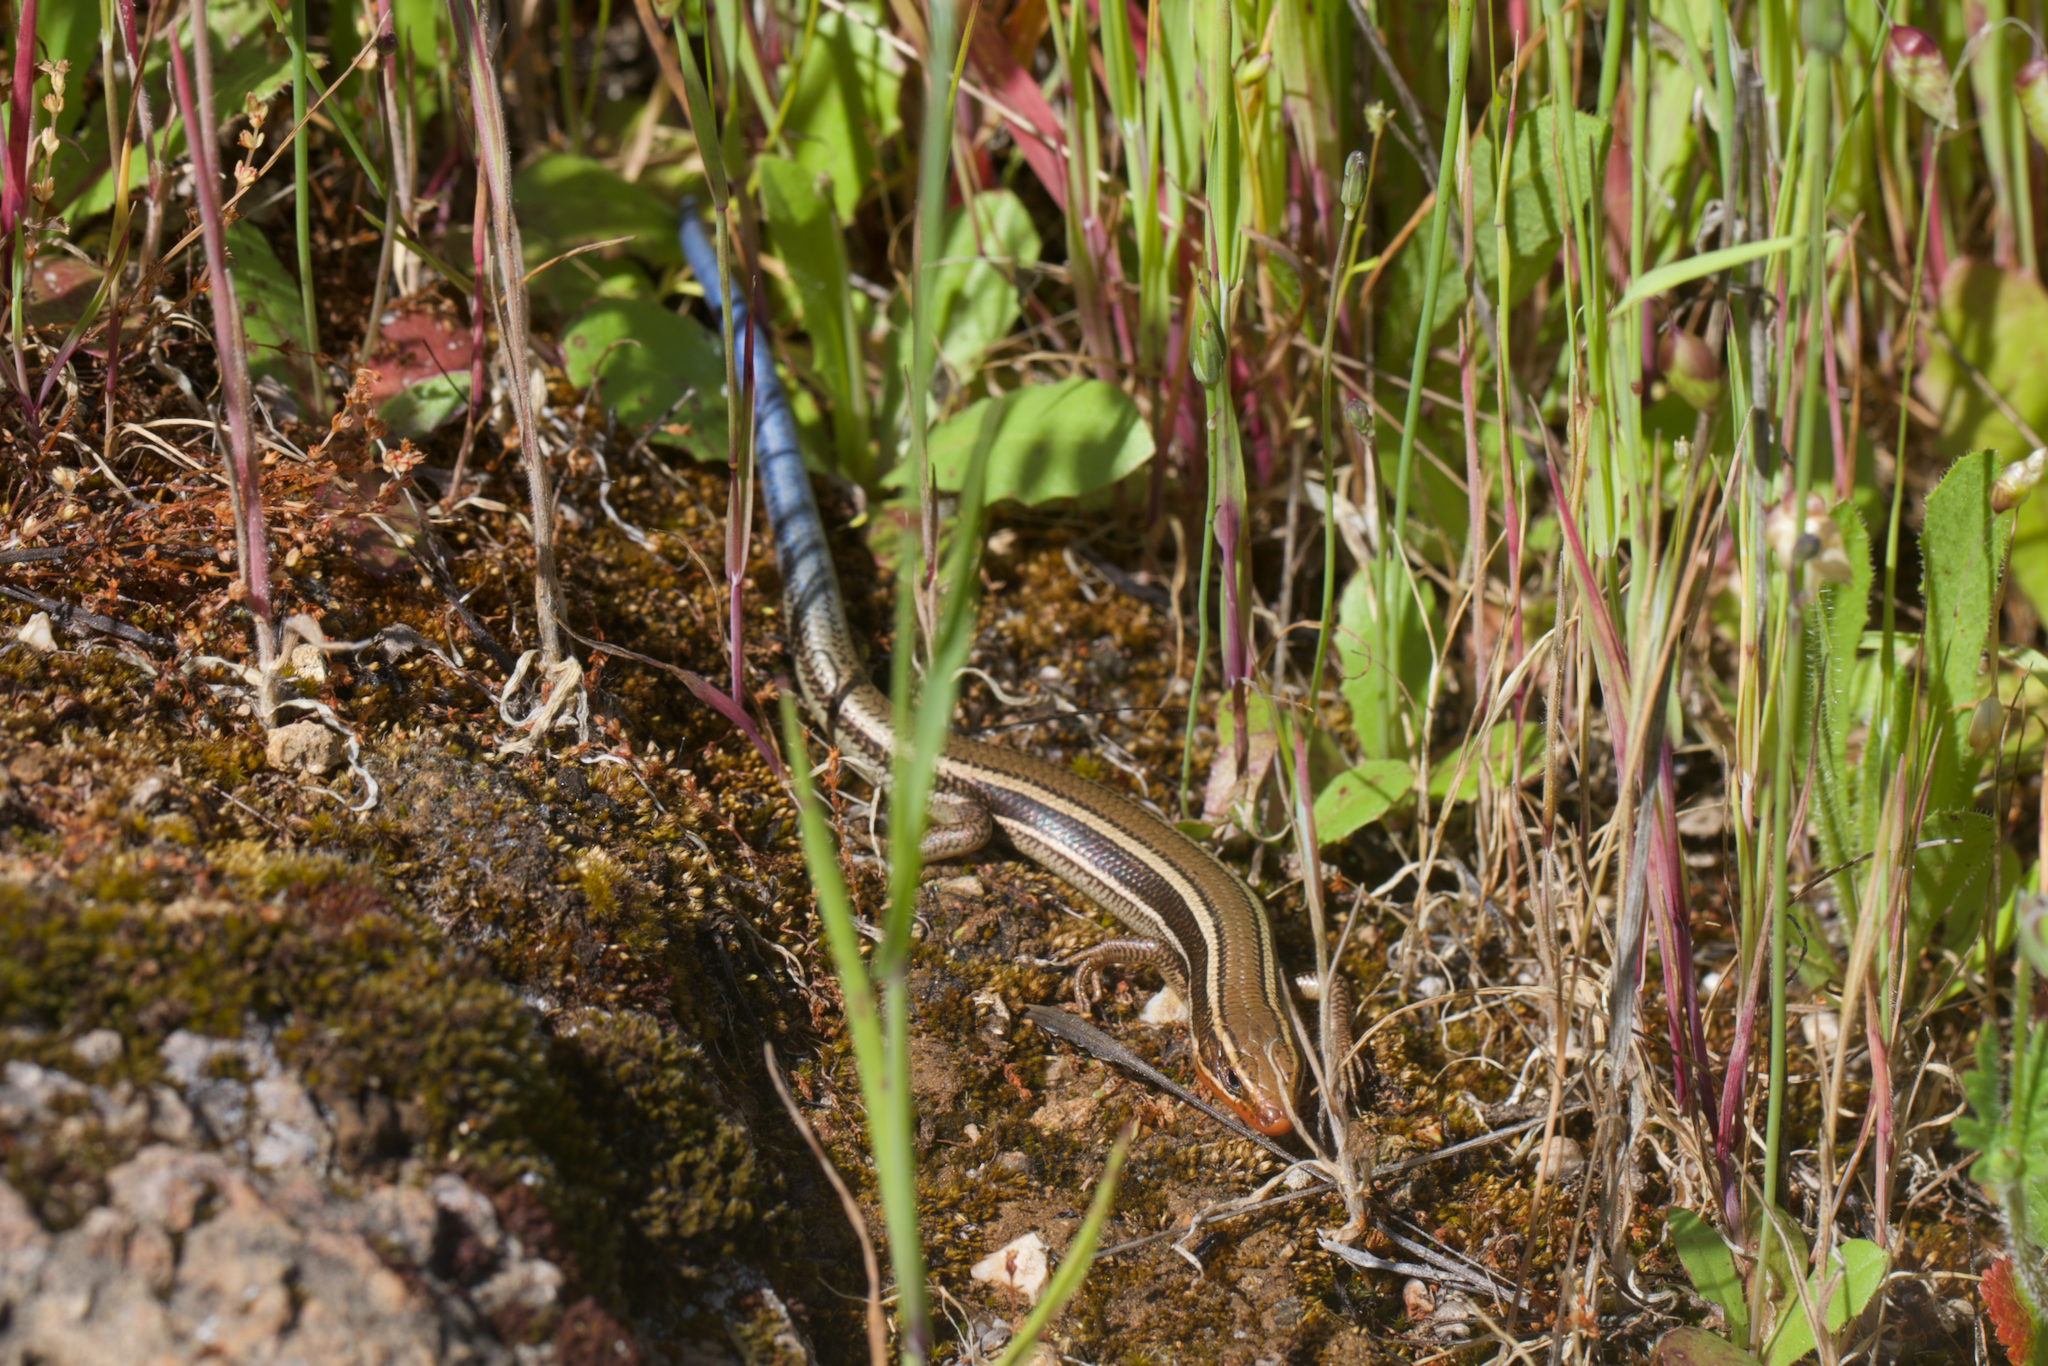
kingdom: Animalia
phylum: Chordata
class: Squamata
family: Scincidae
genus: Plestiodon
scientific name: Plestiodon skiltonianus
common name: Coronado island skink [interparietalis]
